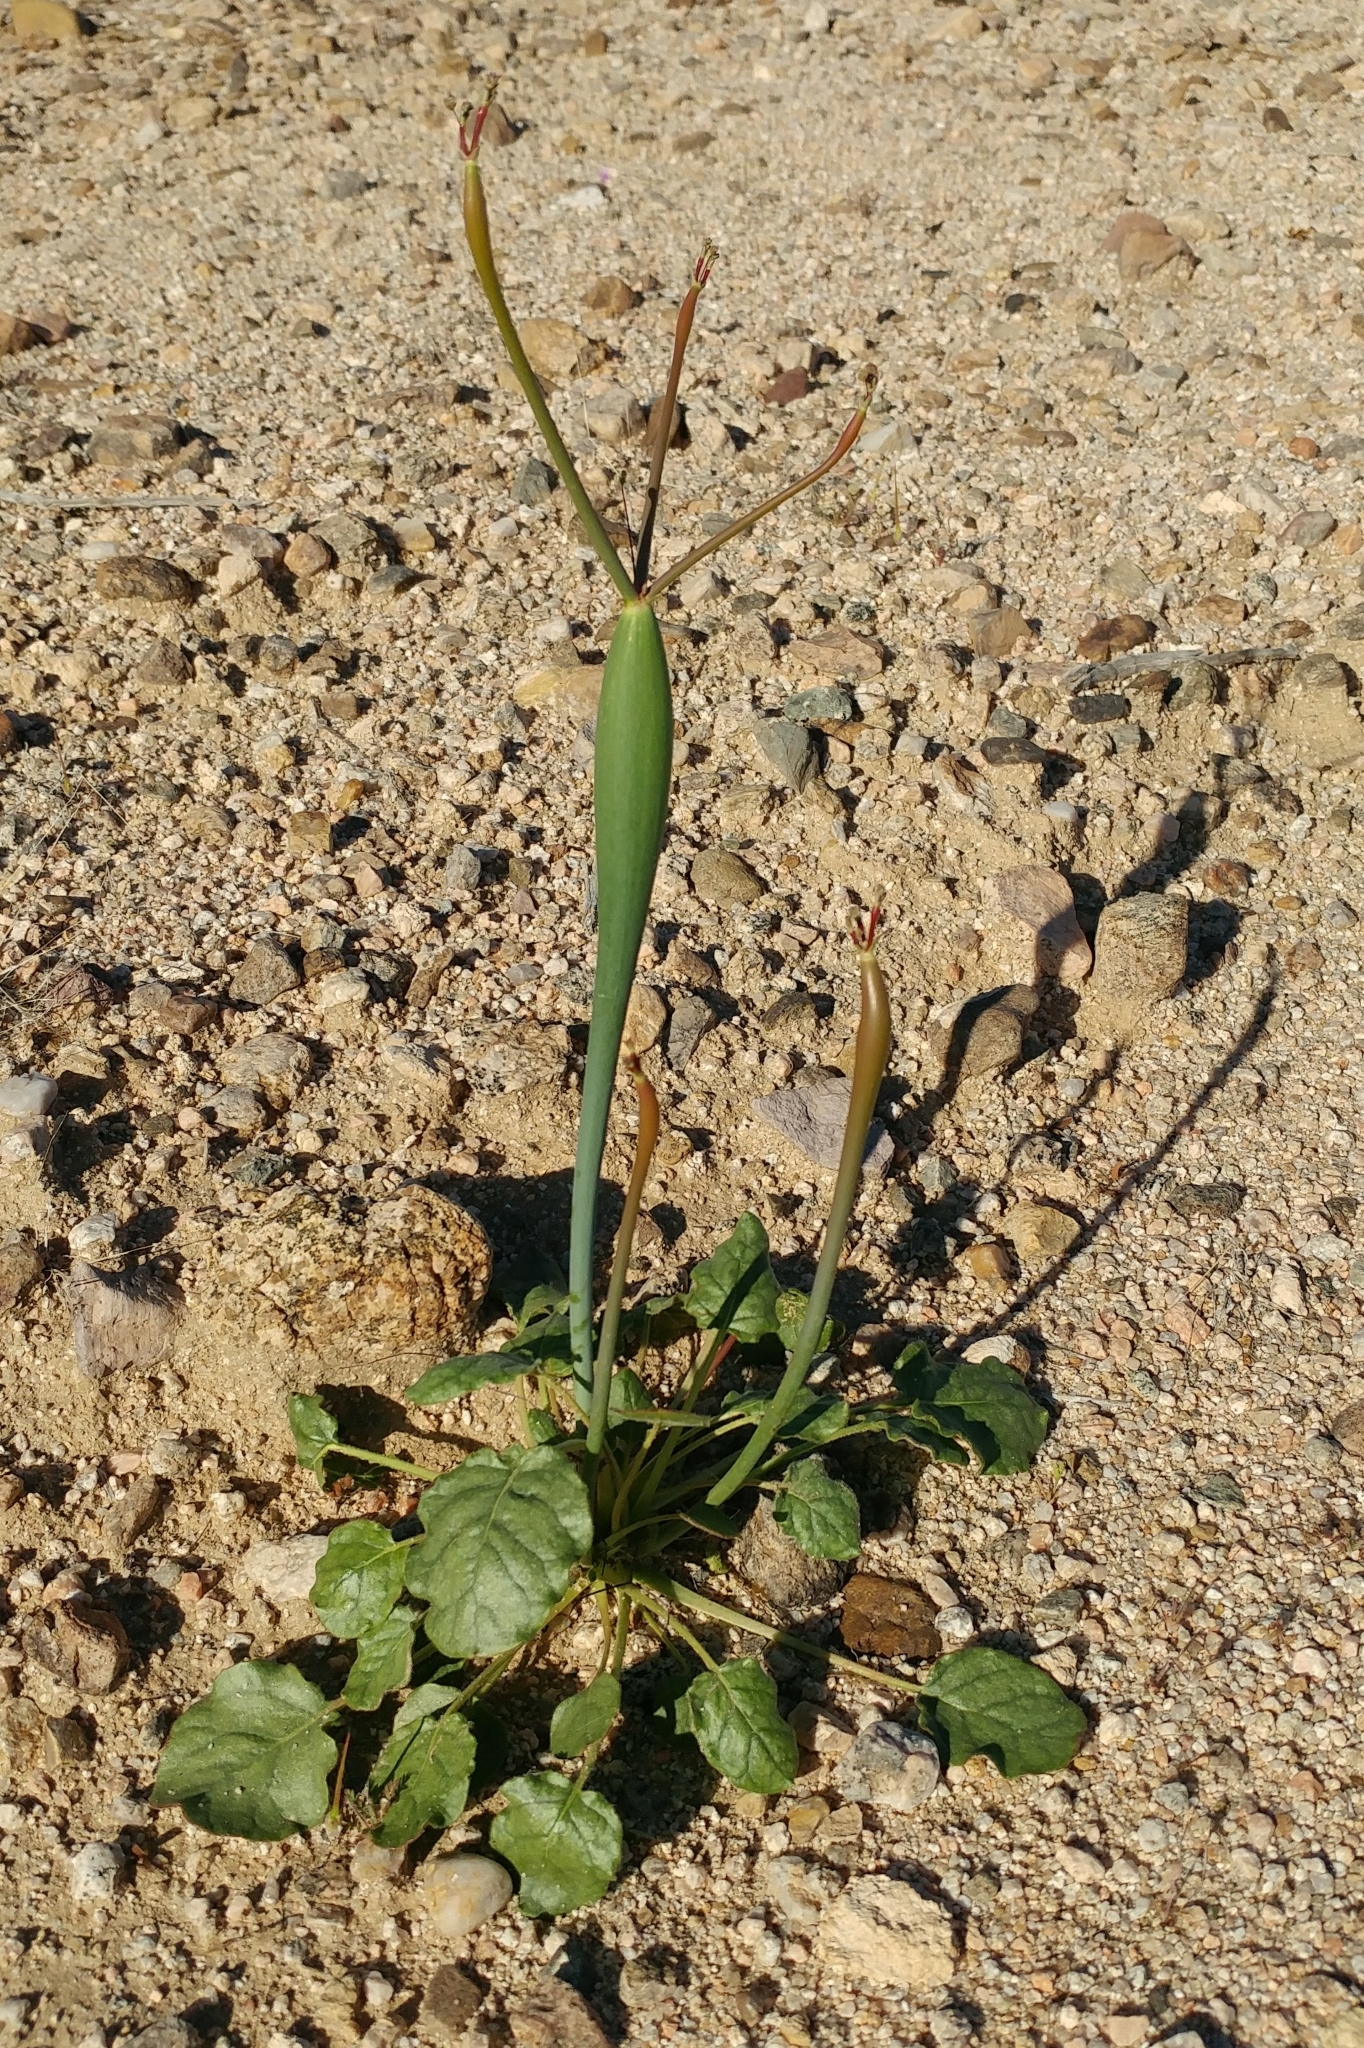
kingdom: Plantae
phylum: Tracheophyta
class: Magnoliopsida
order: Caryophyllales
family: Polygonaceae
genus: Eriogonum
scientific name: Eriogonum inflatum
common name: Desert trumpet
